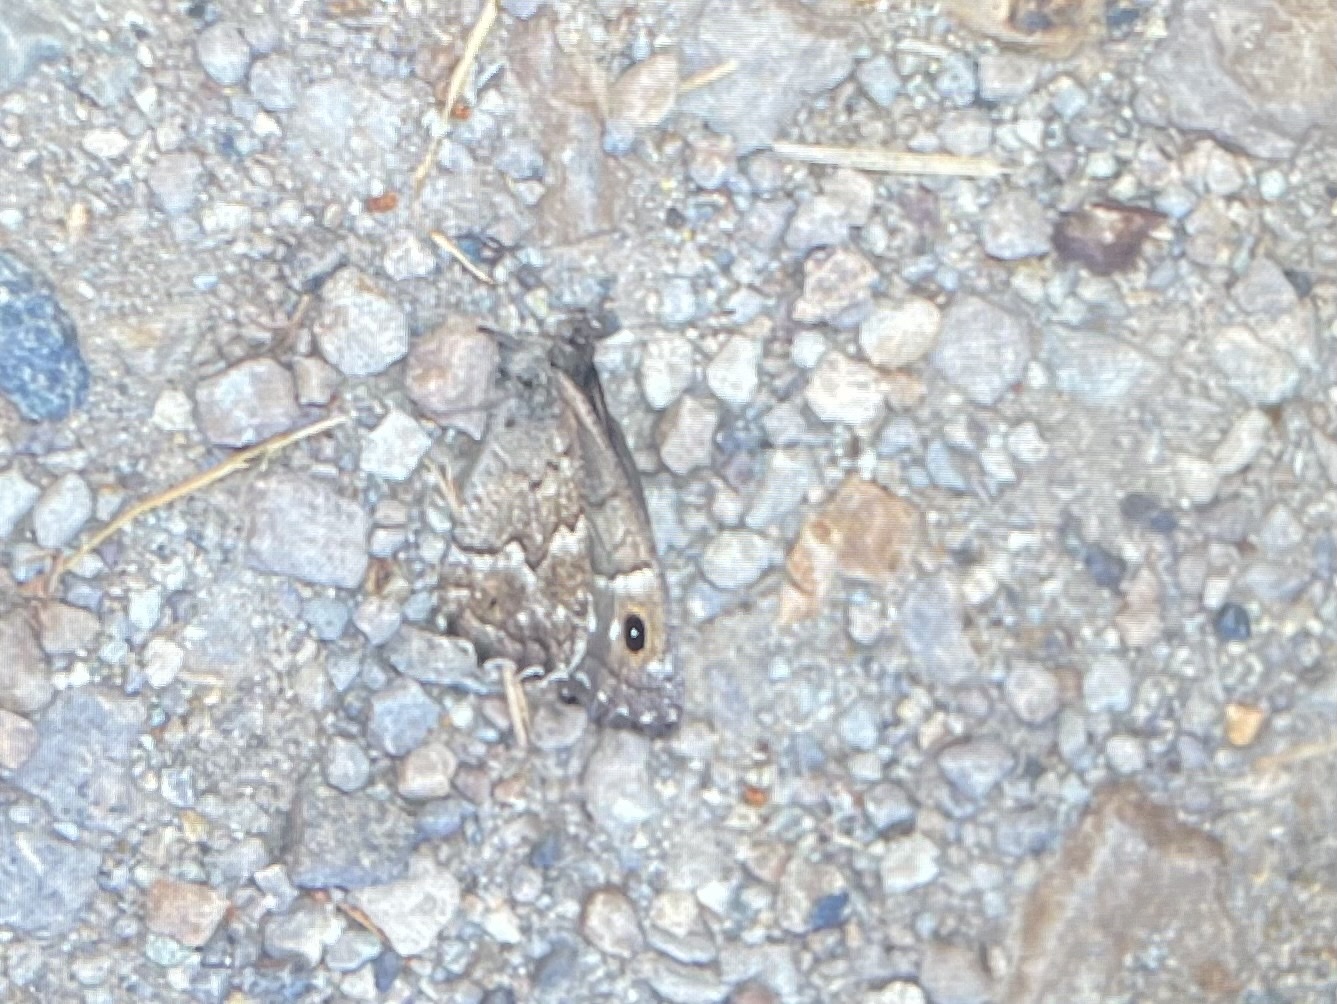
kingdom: Animalia
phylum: Arthropoda
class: Insecta
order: Lepidoptera
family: Nymphalidae
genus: Hipparchia
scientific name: Hipparchia tamadabae
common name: Gran canaria grayling
